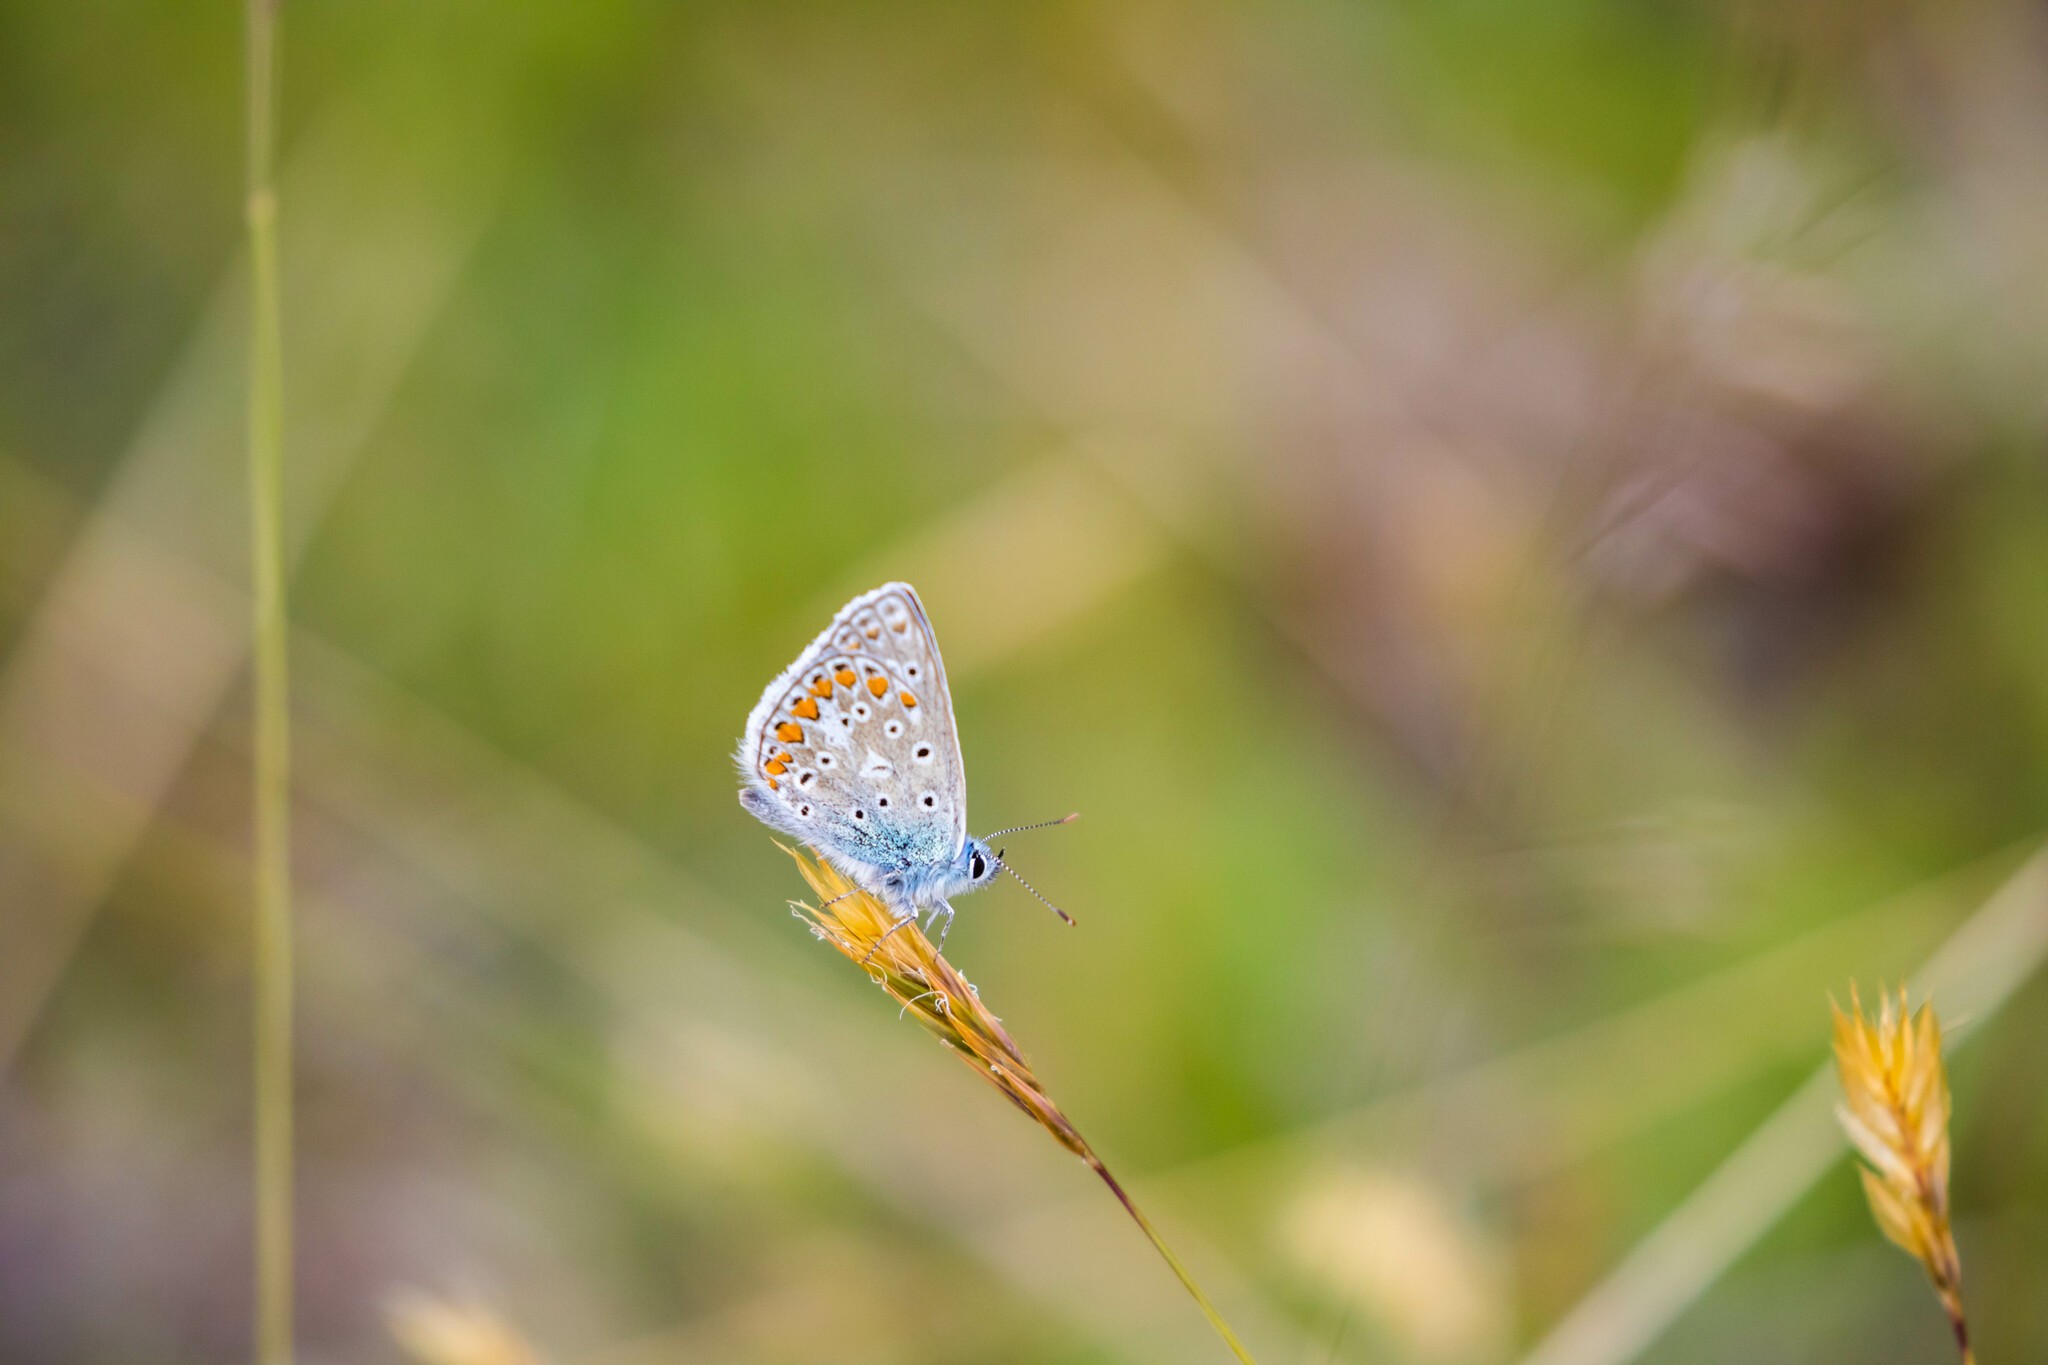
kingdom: Animalia
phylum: Arthropoda
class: Insecta
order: Lepidoptera
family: Lycaenidae
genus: Polyommatus
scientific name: Polyommatus icarus
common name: Common blue
